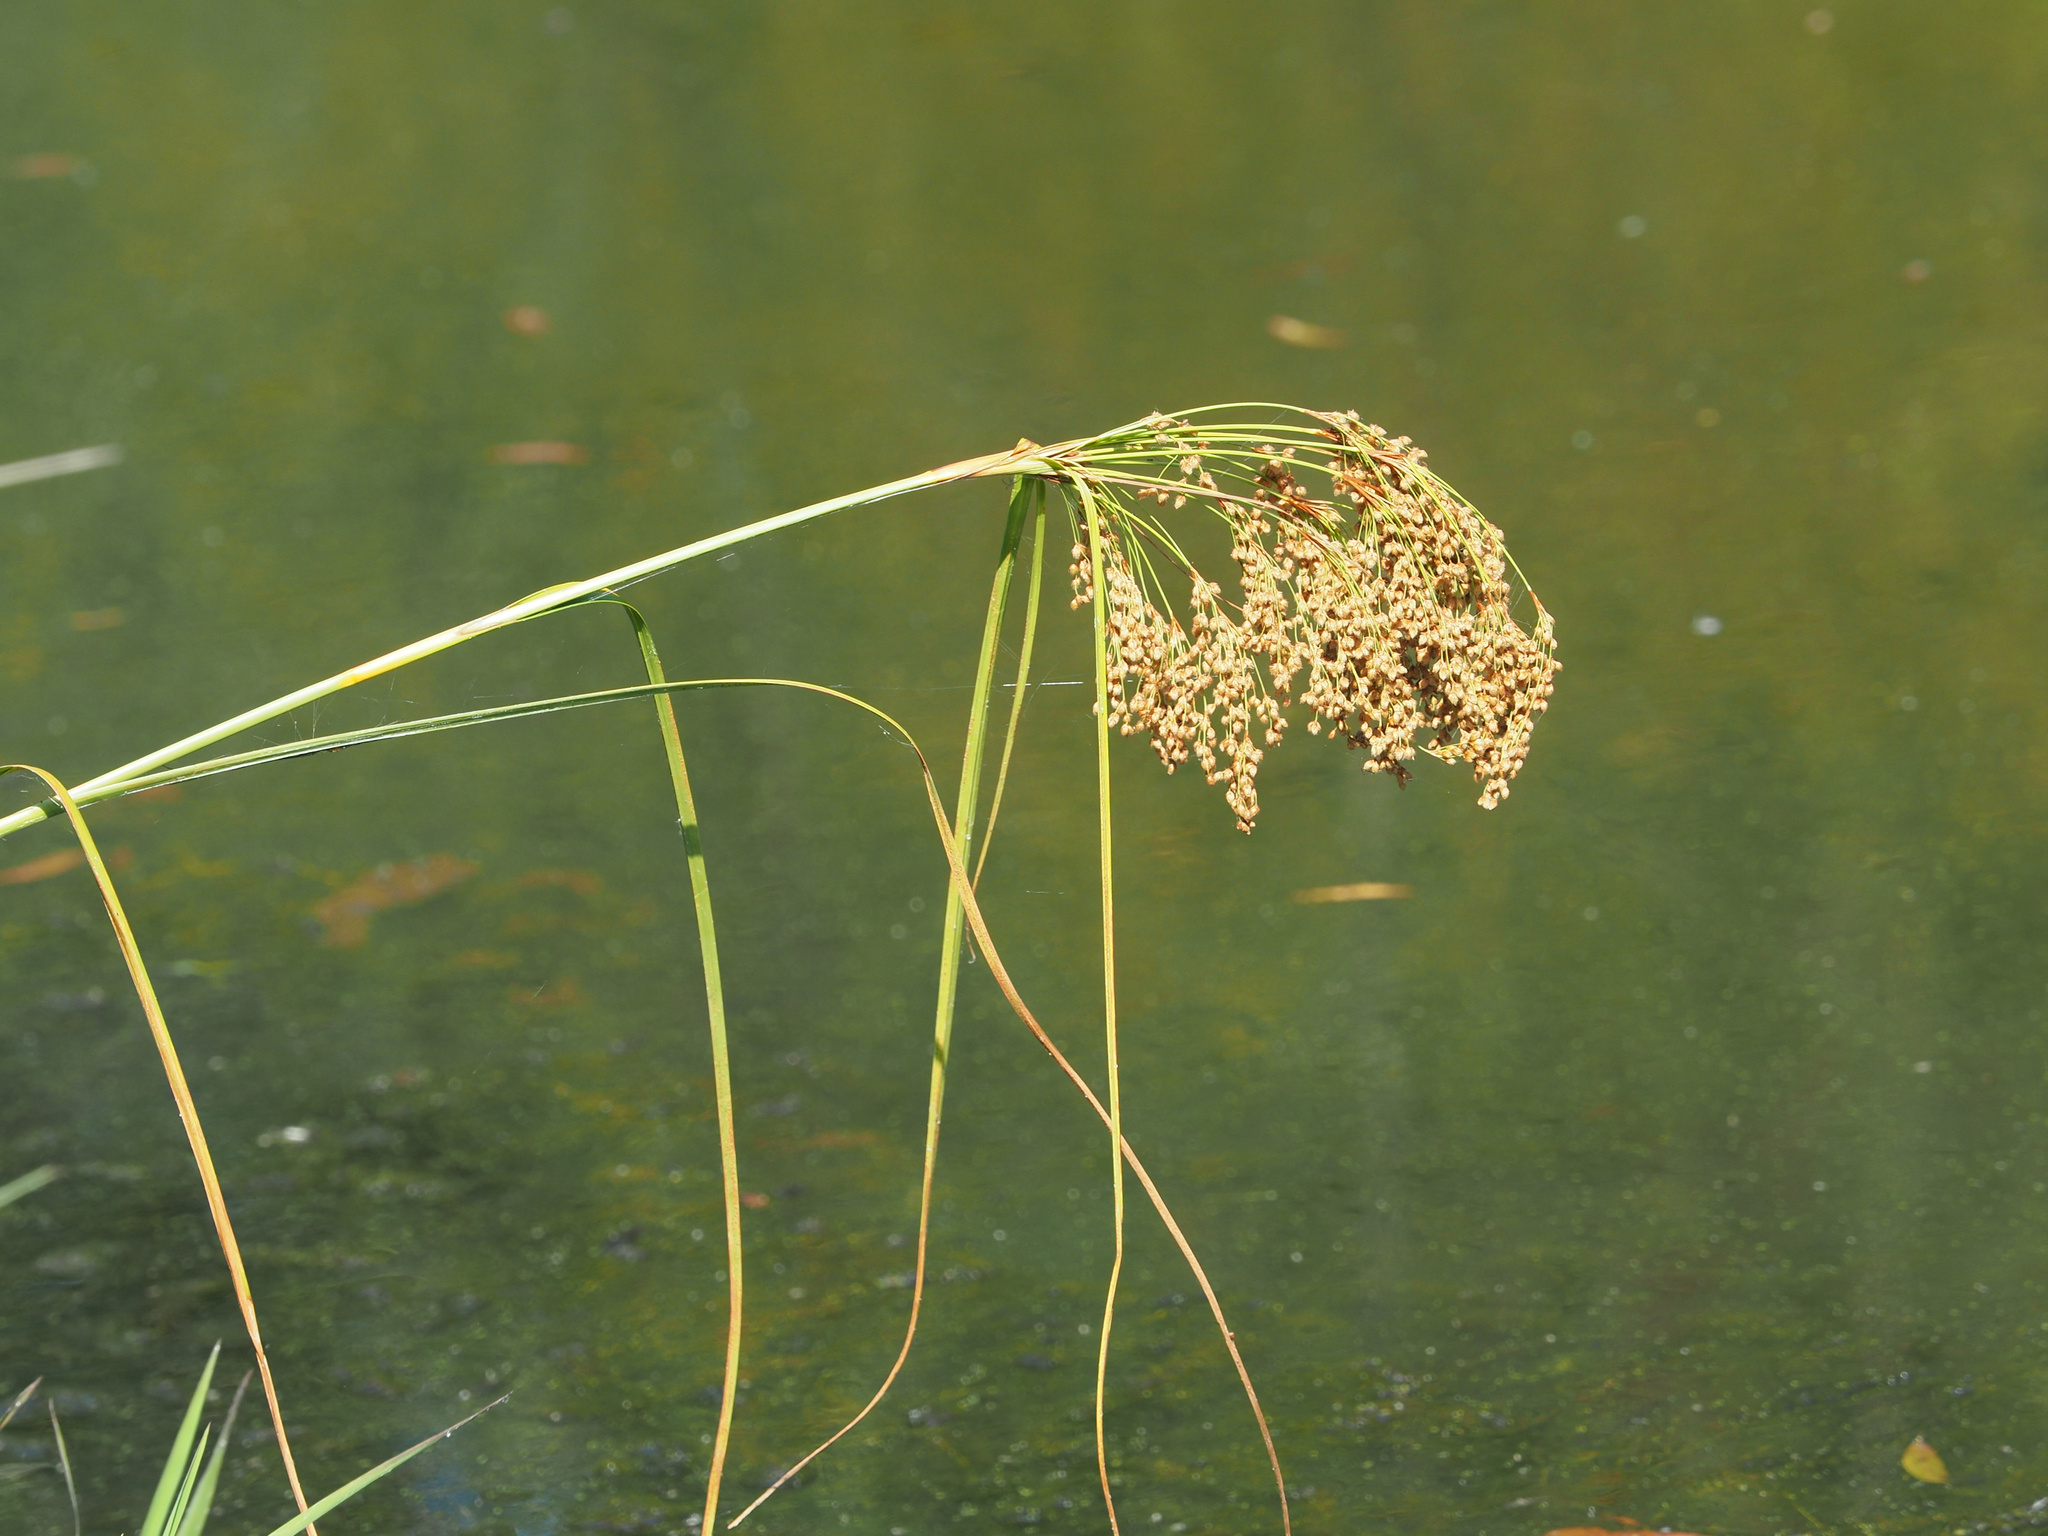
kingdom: Plantae
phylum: Tracheophyta
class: Liliopsida
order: Poales
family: Cyperaceae
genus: Scirpus
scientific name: Scirpus cyperinus
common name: Black-sheathed bulrush
